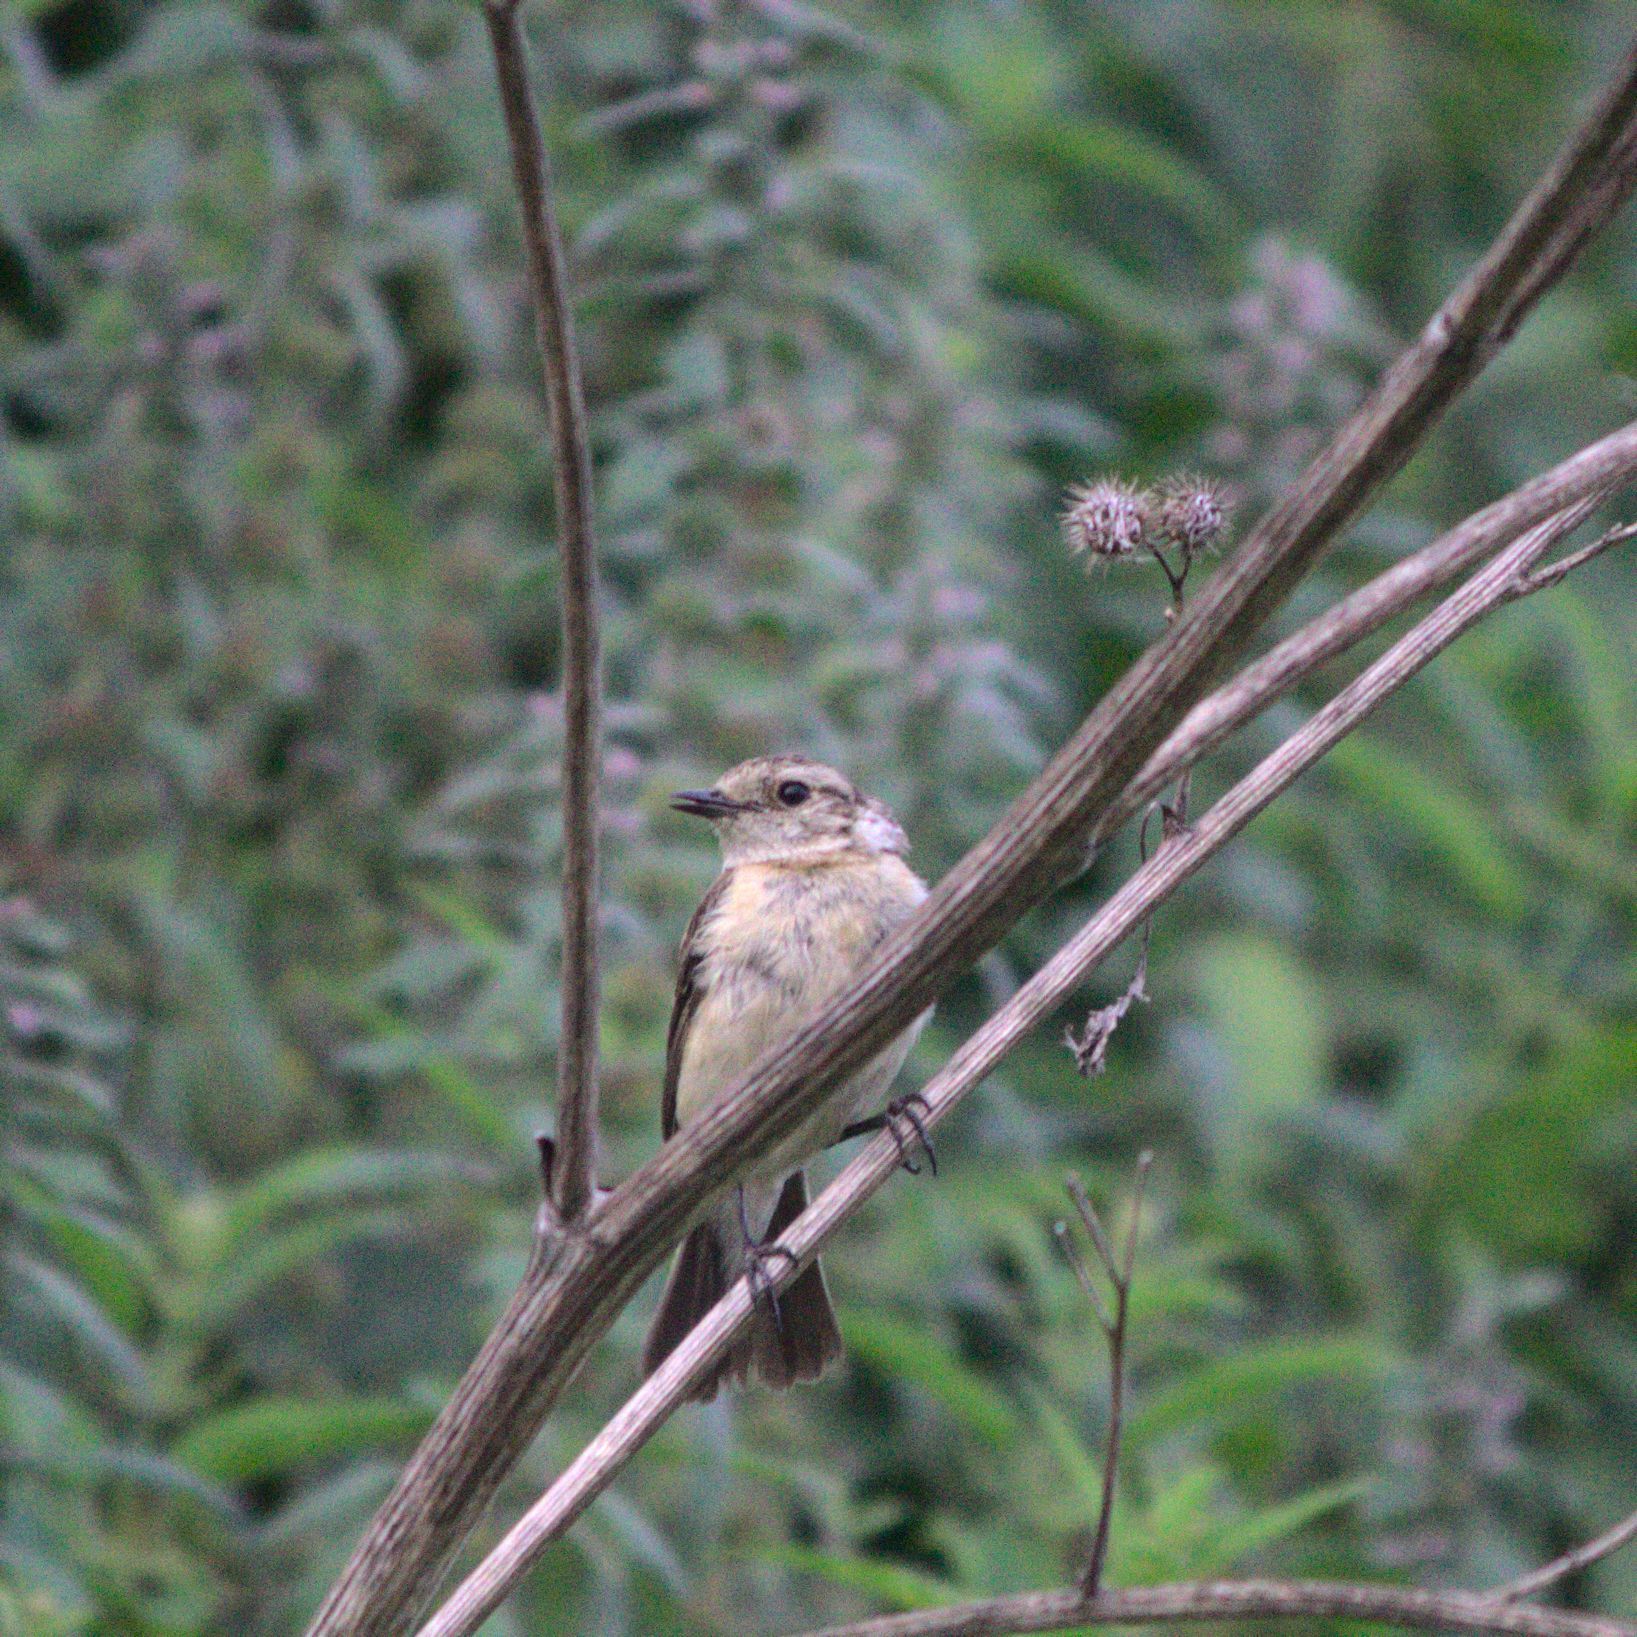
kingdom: Animalia
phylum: Chordata
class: Aves
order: Passeriformes
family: Muscicapidae
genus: Saxicola
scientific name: Saxicola maurus
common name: Siberian stonechat
